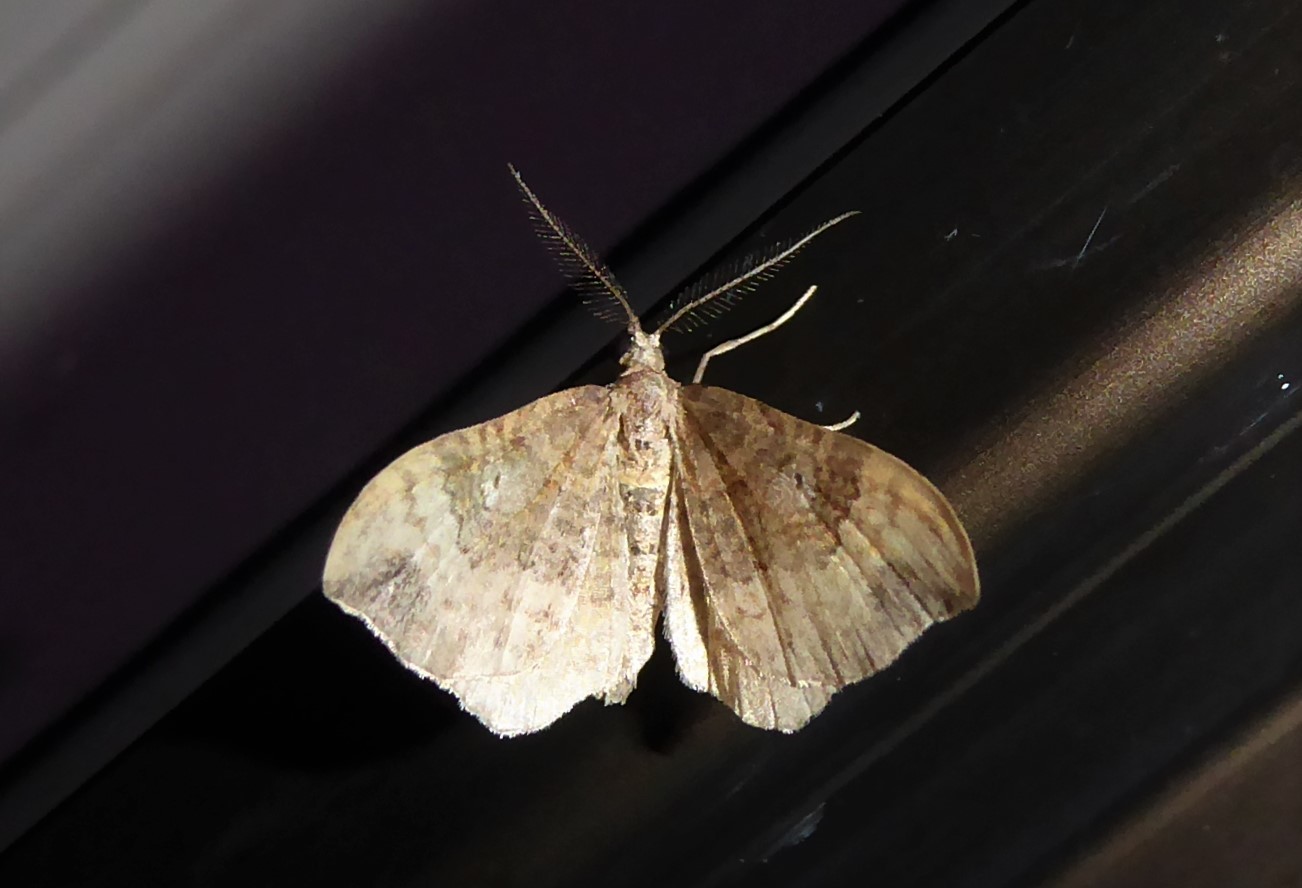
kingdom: Animalia
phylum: Arthropoda
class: Insecta
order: Lepidoptera
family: Geometridae
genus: Homodotis
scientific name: Homodotis megaspilata
